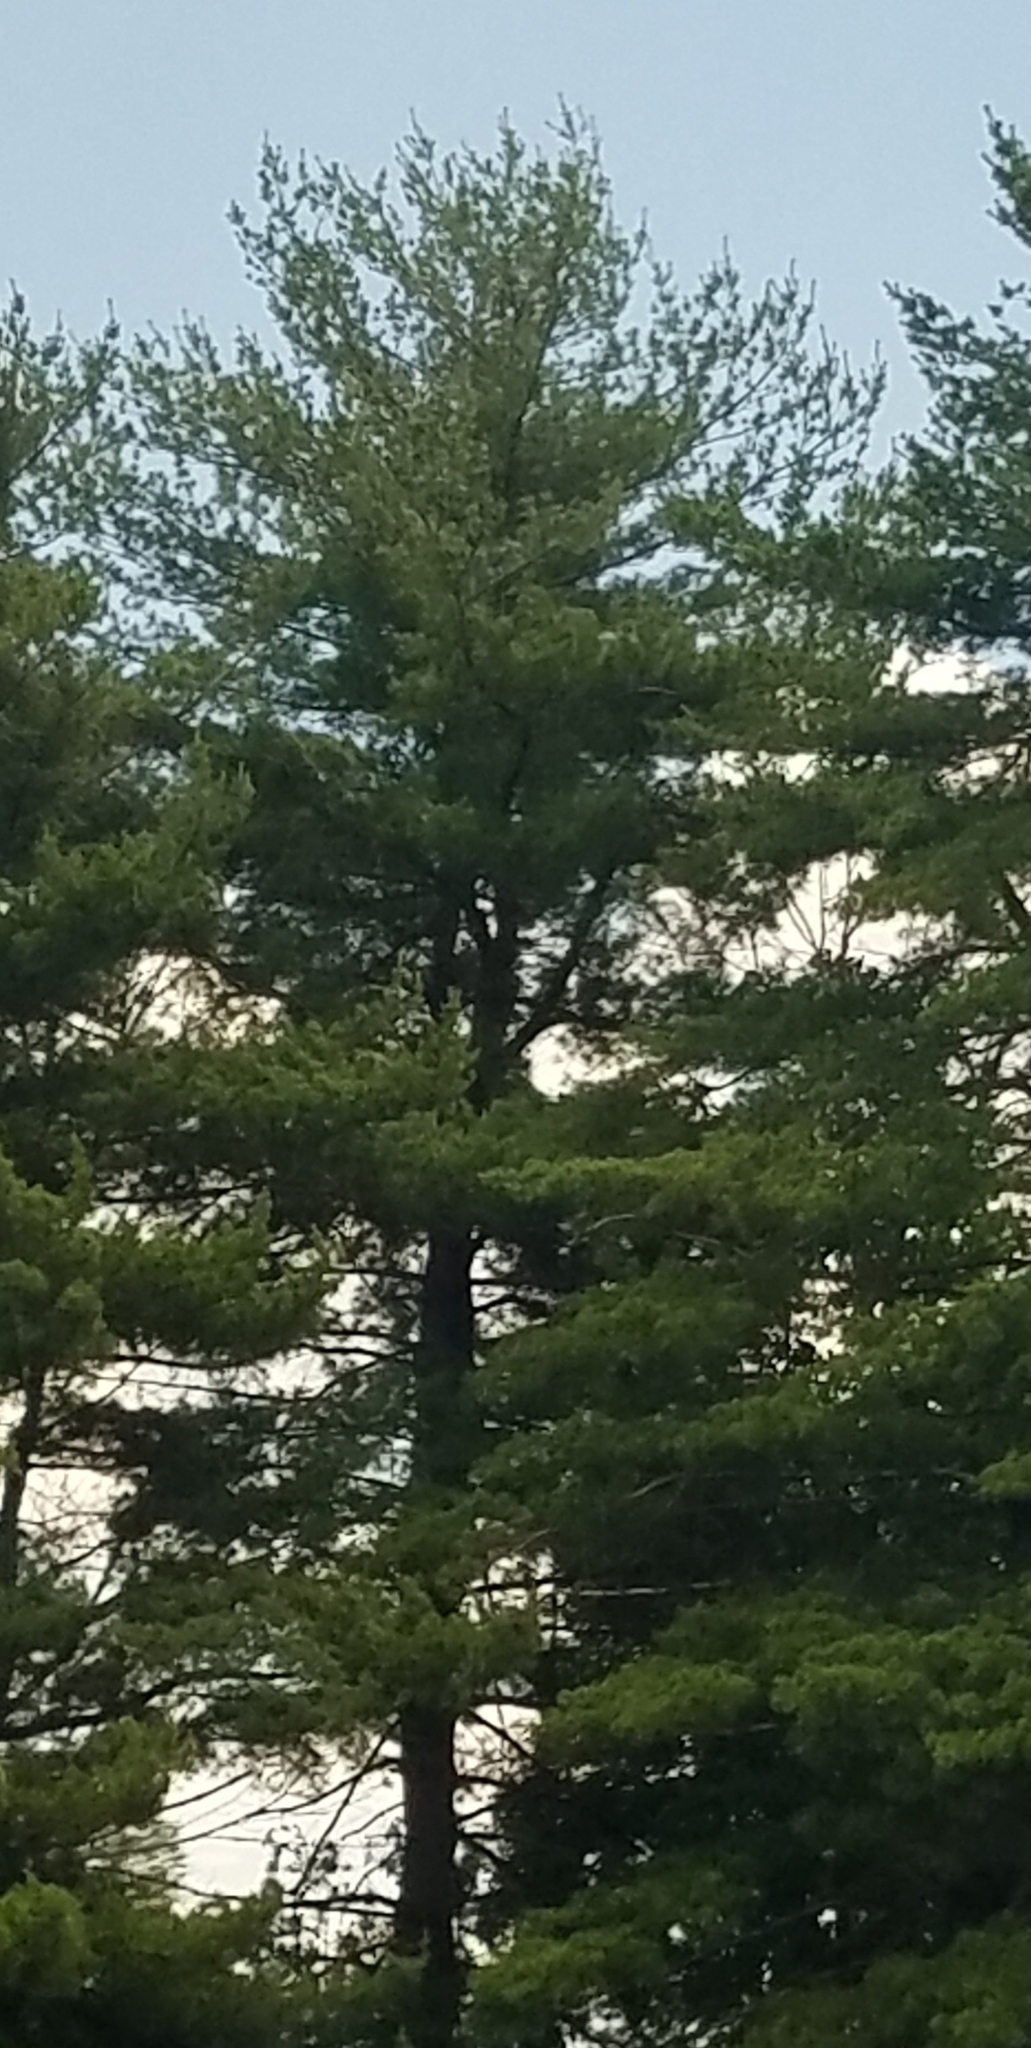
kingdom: Plantae
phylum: Tracheophyta
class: Pinopsida
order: Pinales
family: Pinaceae
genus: Pinus
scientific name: Pinus strobus
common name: Weymouth pine
